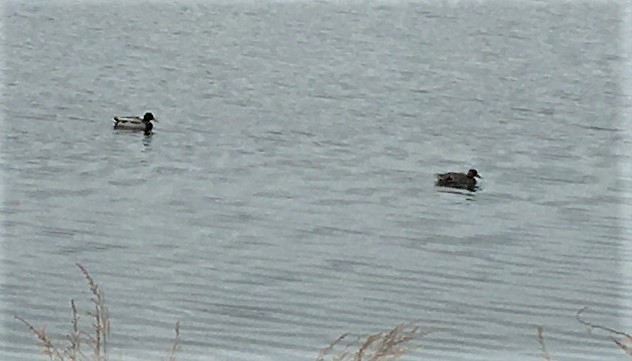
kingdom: Animalia
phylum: Chordata
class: Aves
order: Anseriformes
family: Anatidae
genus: Anas
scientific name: Anas platyrhynchos
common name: Mallard
